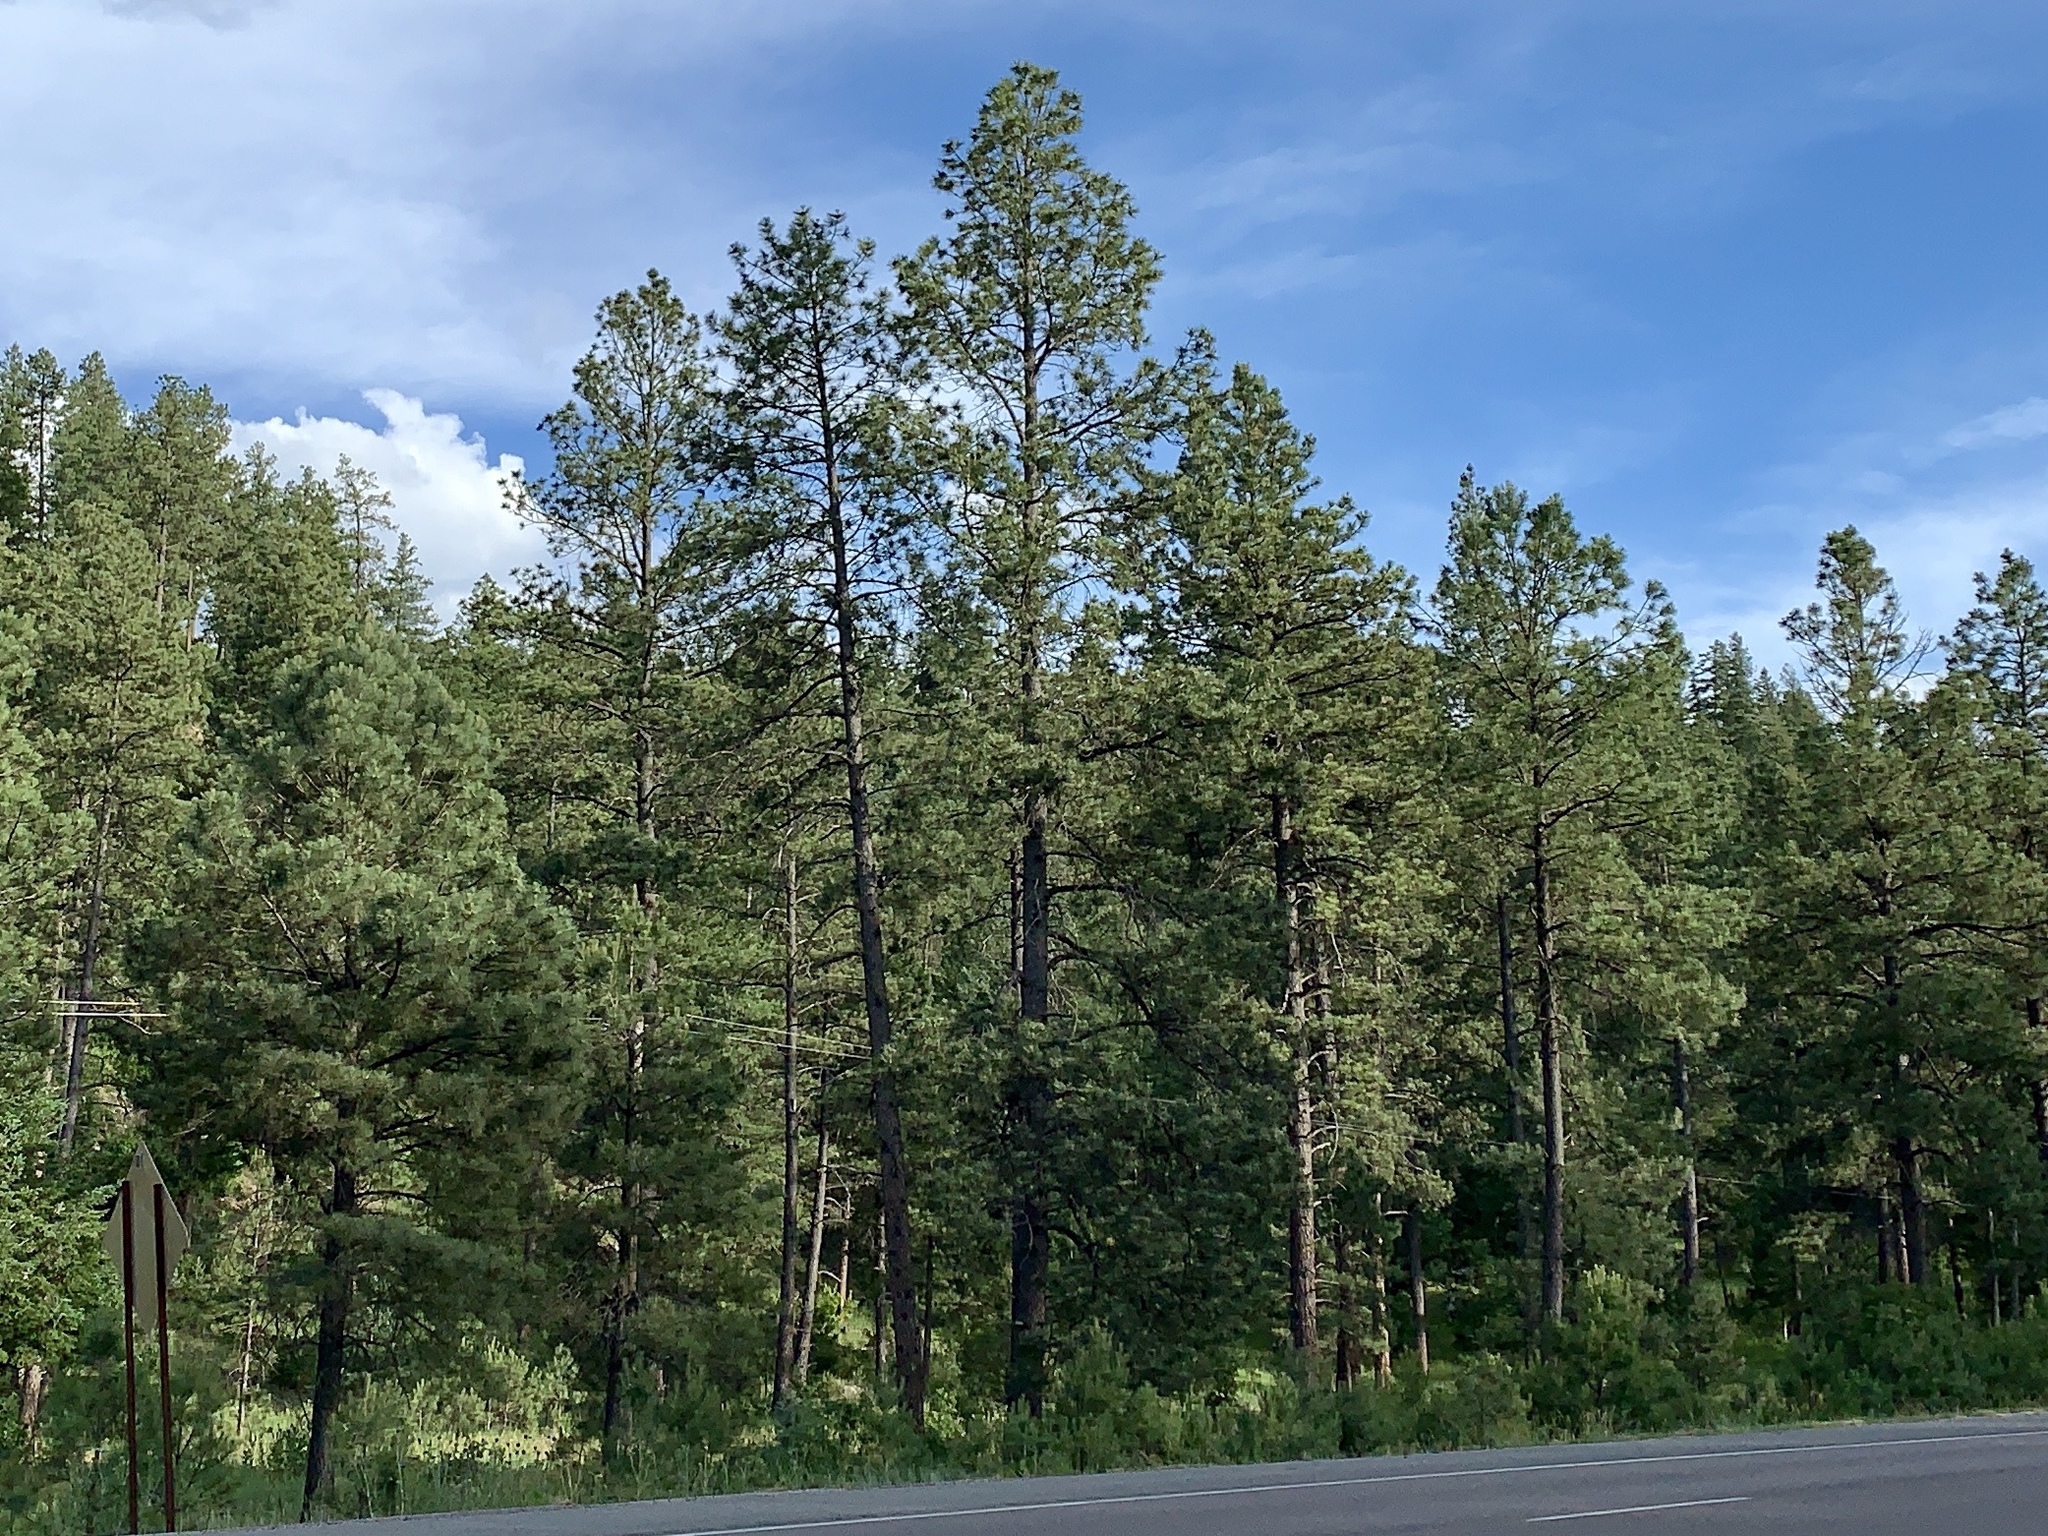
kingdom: Plantae
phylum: Tracheophyta
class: Pinopsida
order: Pinales
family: Pinaceae
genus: Pinus
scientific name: Pinus ponderosa
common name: Western yellow-pine
